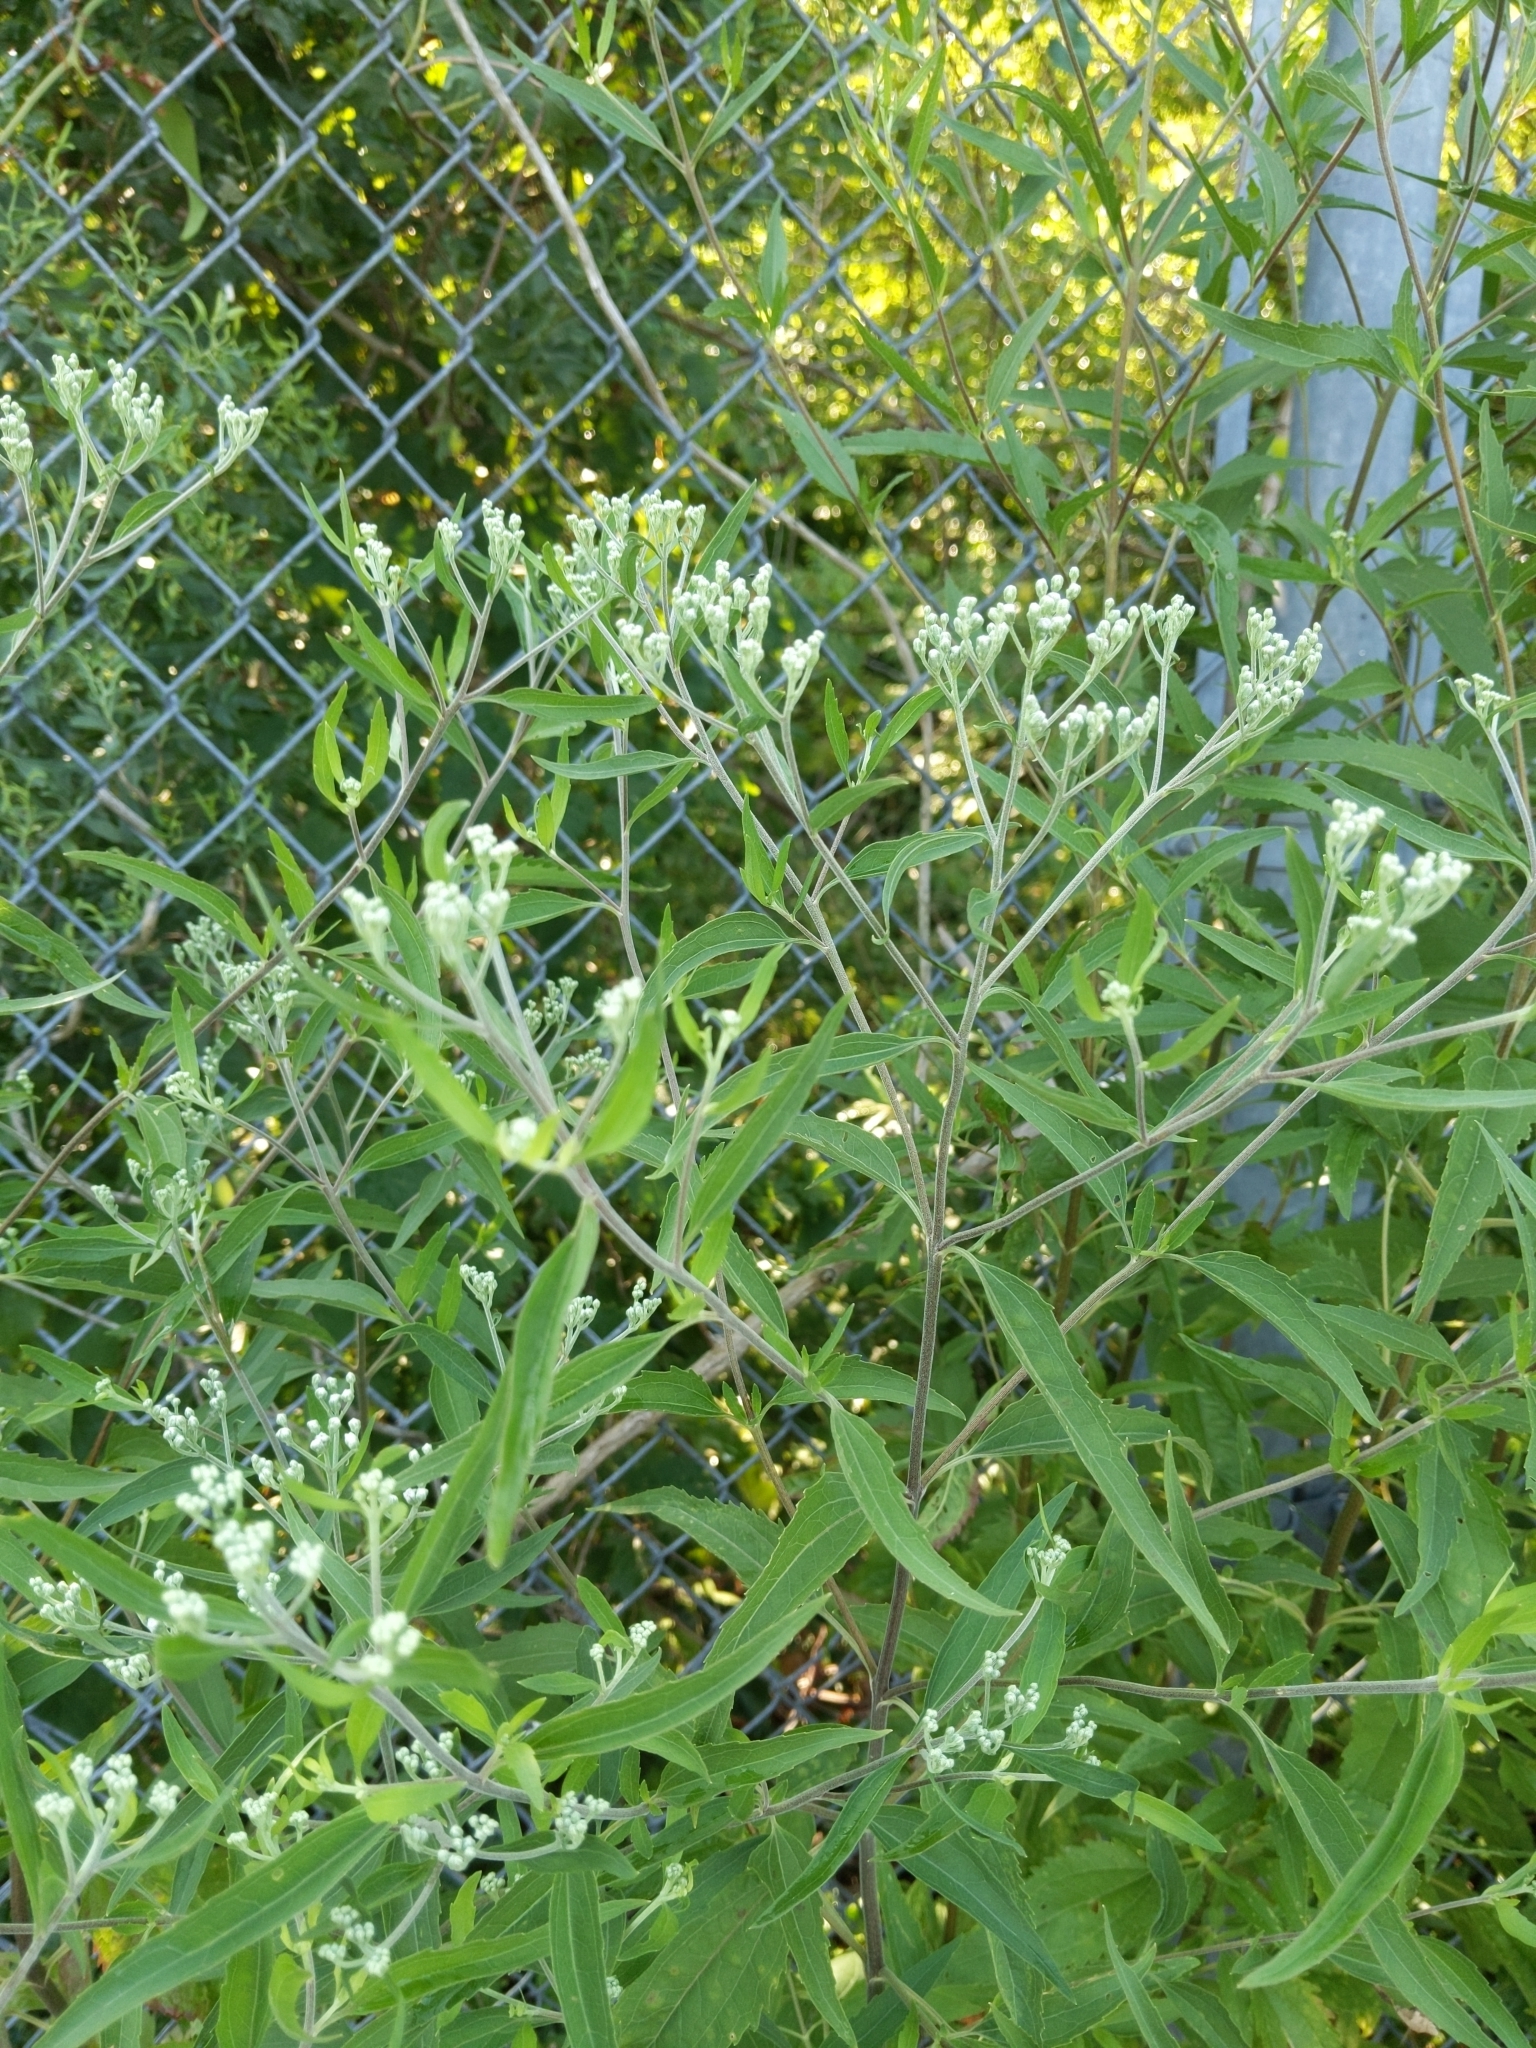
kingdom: Plantae
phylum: Tracheophyta
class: Magnoliopsida
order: Asterales
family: Asteraceae
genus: Eupatorium
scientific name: Eupatorium serotinum
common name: Late boneset
